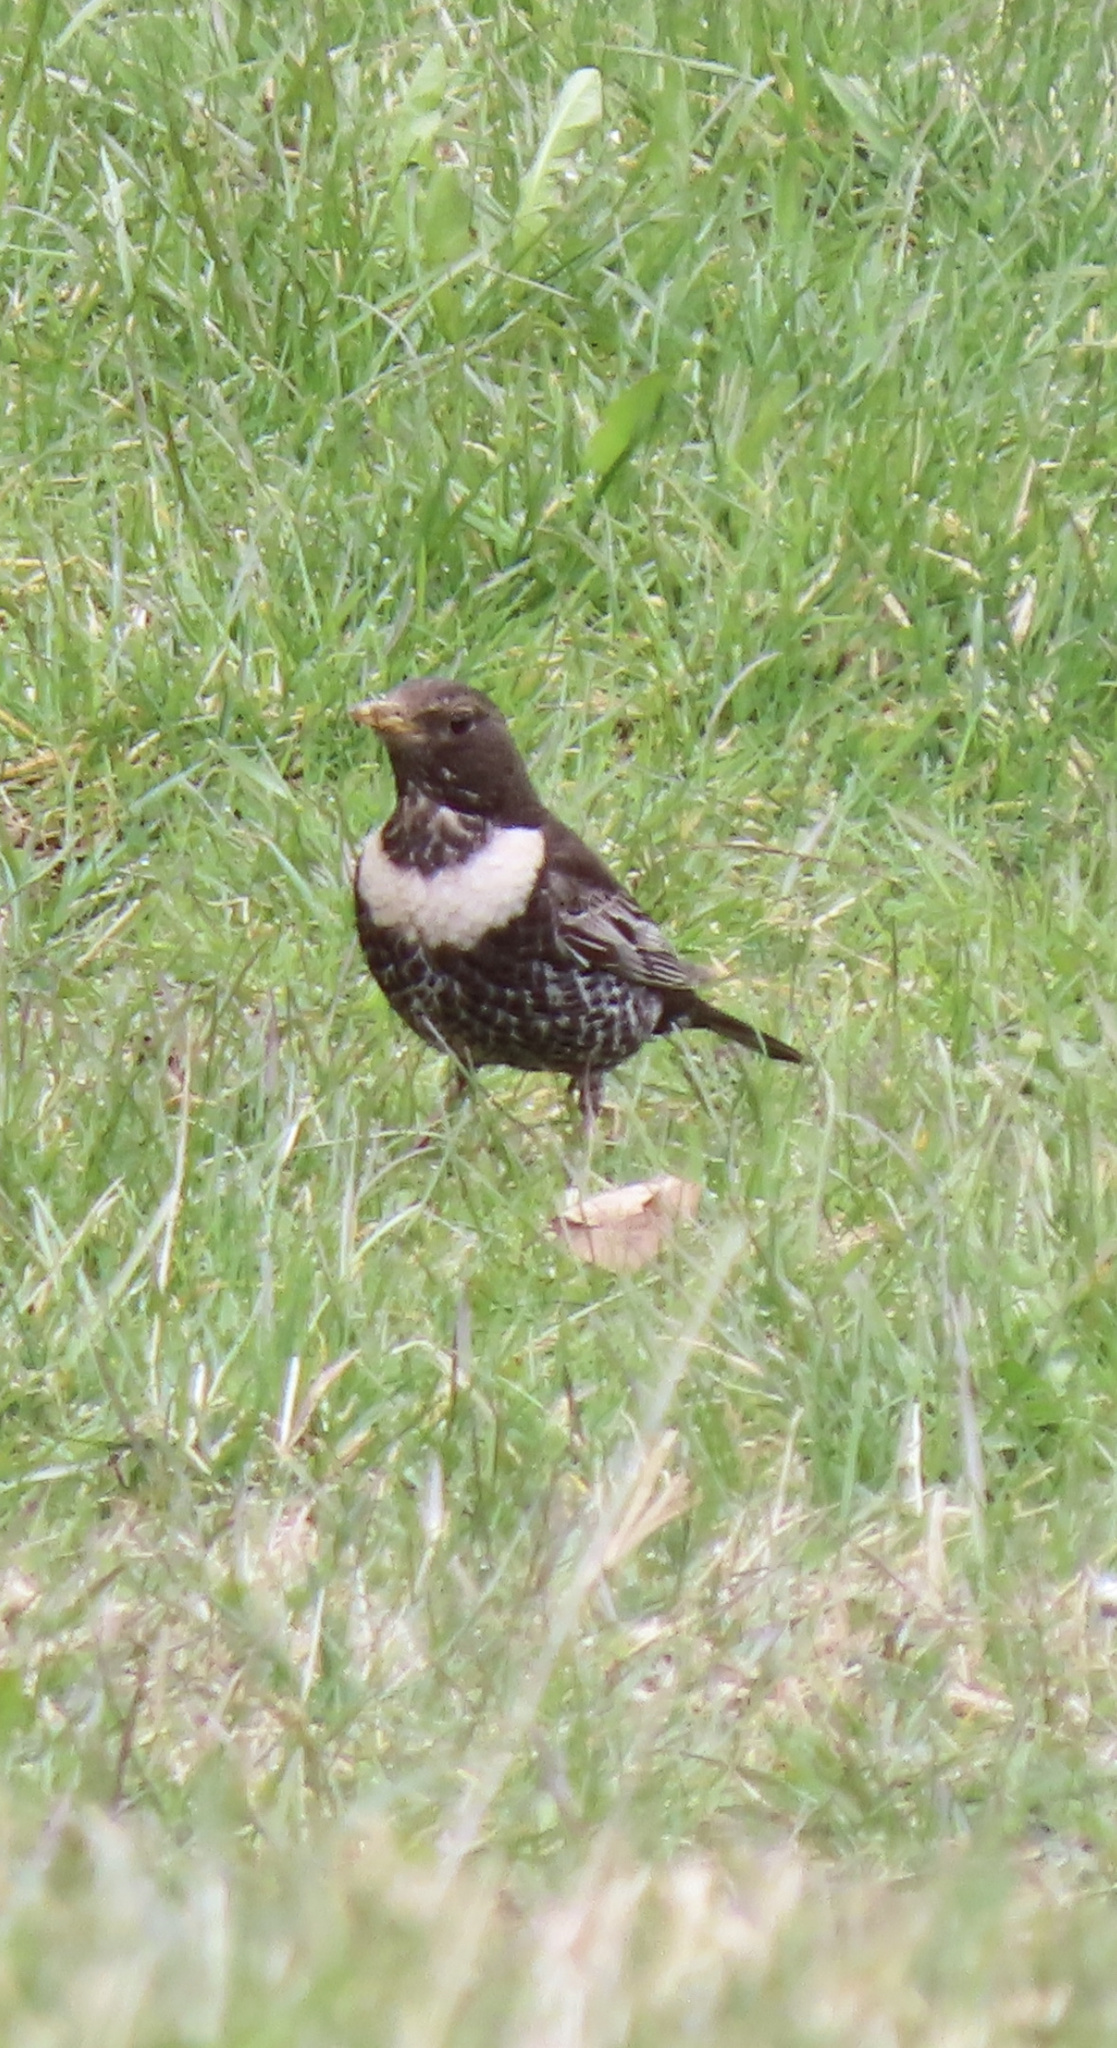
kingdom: Animalia
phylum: Chordata
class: Aves
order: Passeriformes
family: Turdidae
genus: Turdus
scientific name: Turdus torquatus
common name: Ring ouzel
